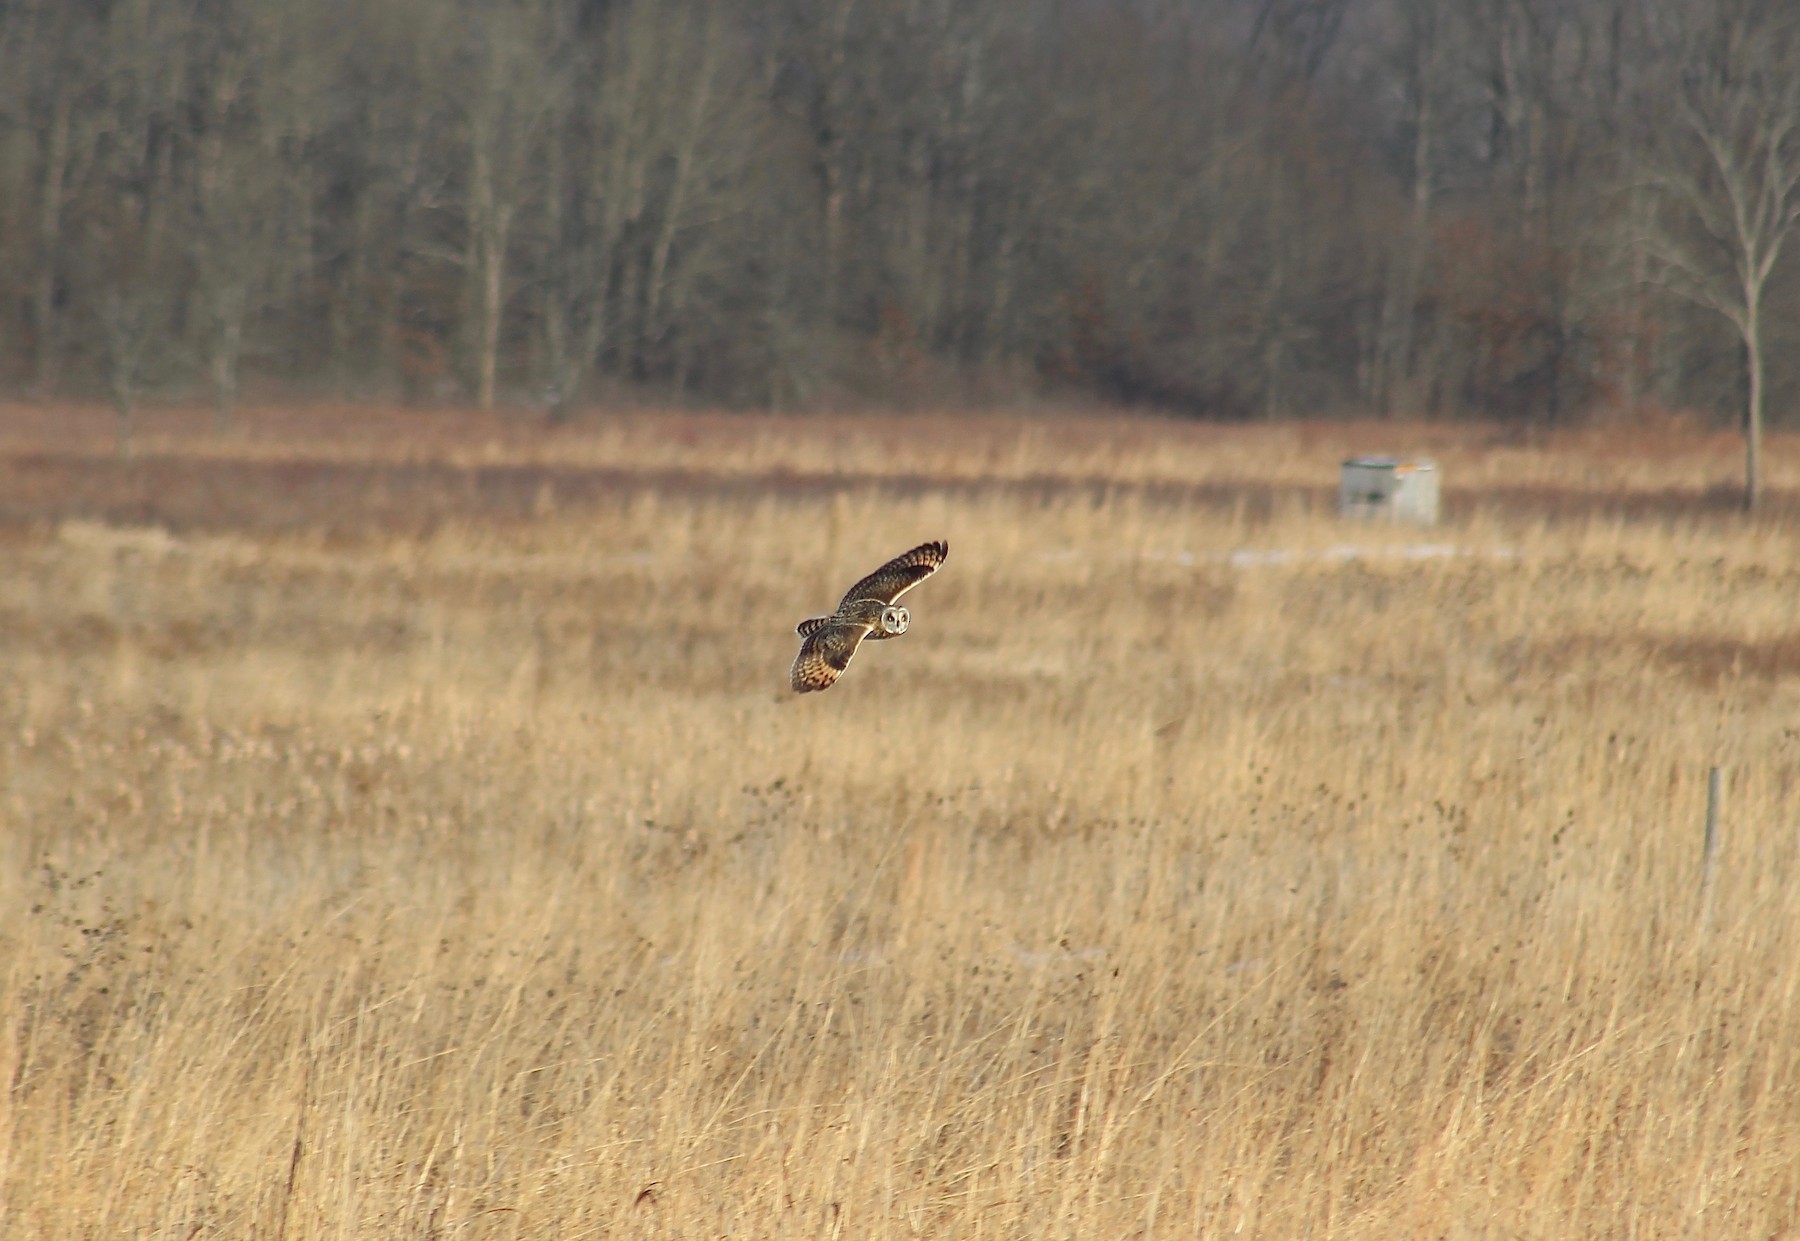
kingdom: Animalia
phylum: Chordata
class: Aves
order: Strigiformes
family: Strigidae
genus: Asio
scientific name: Asio flammeus
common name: Short-eared owl
